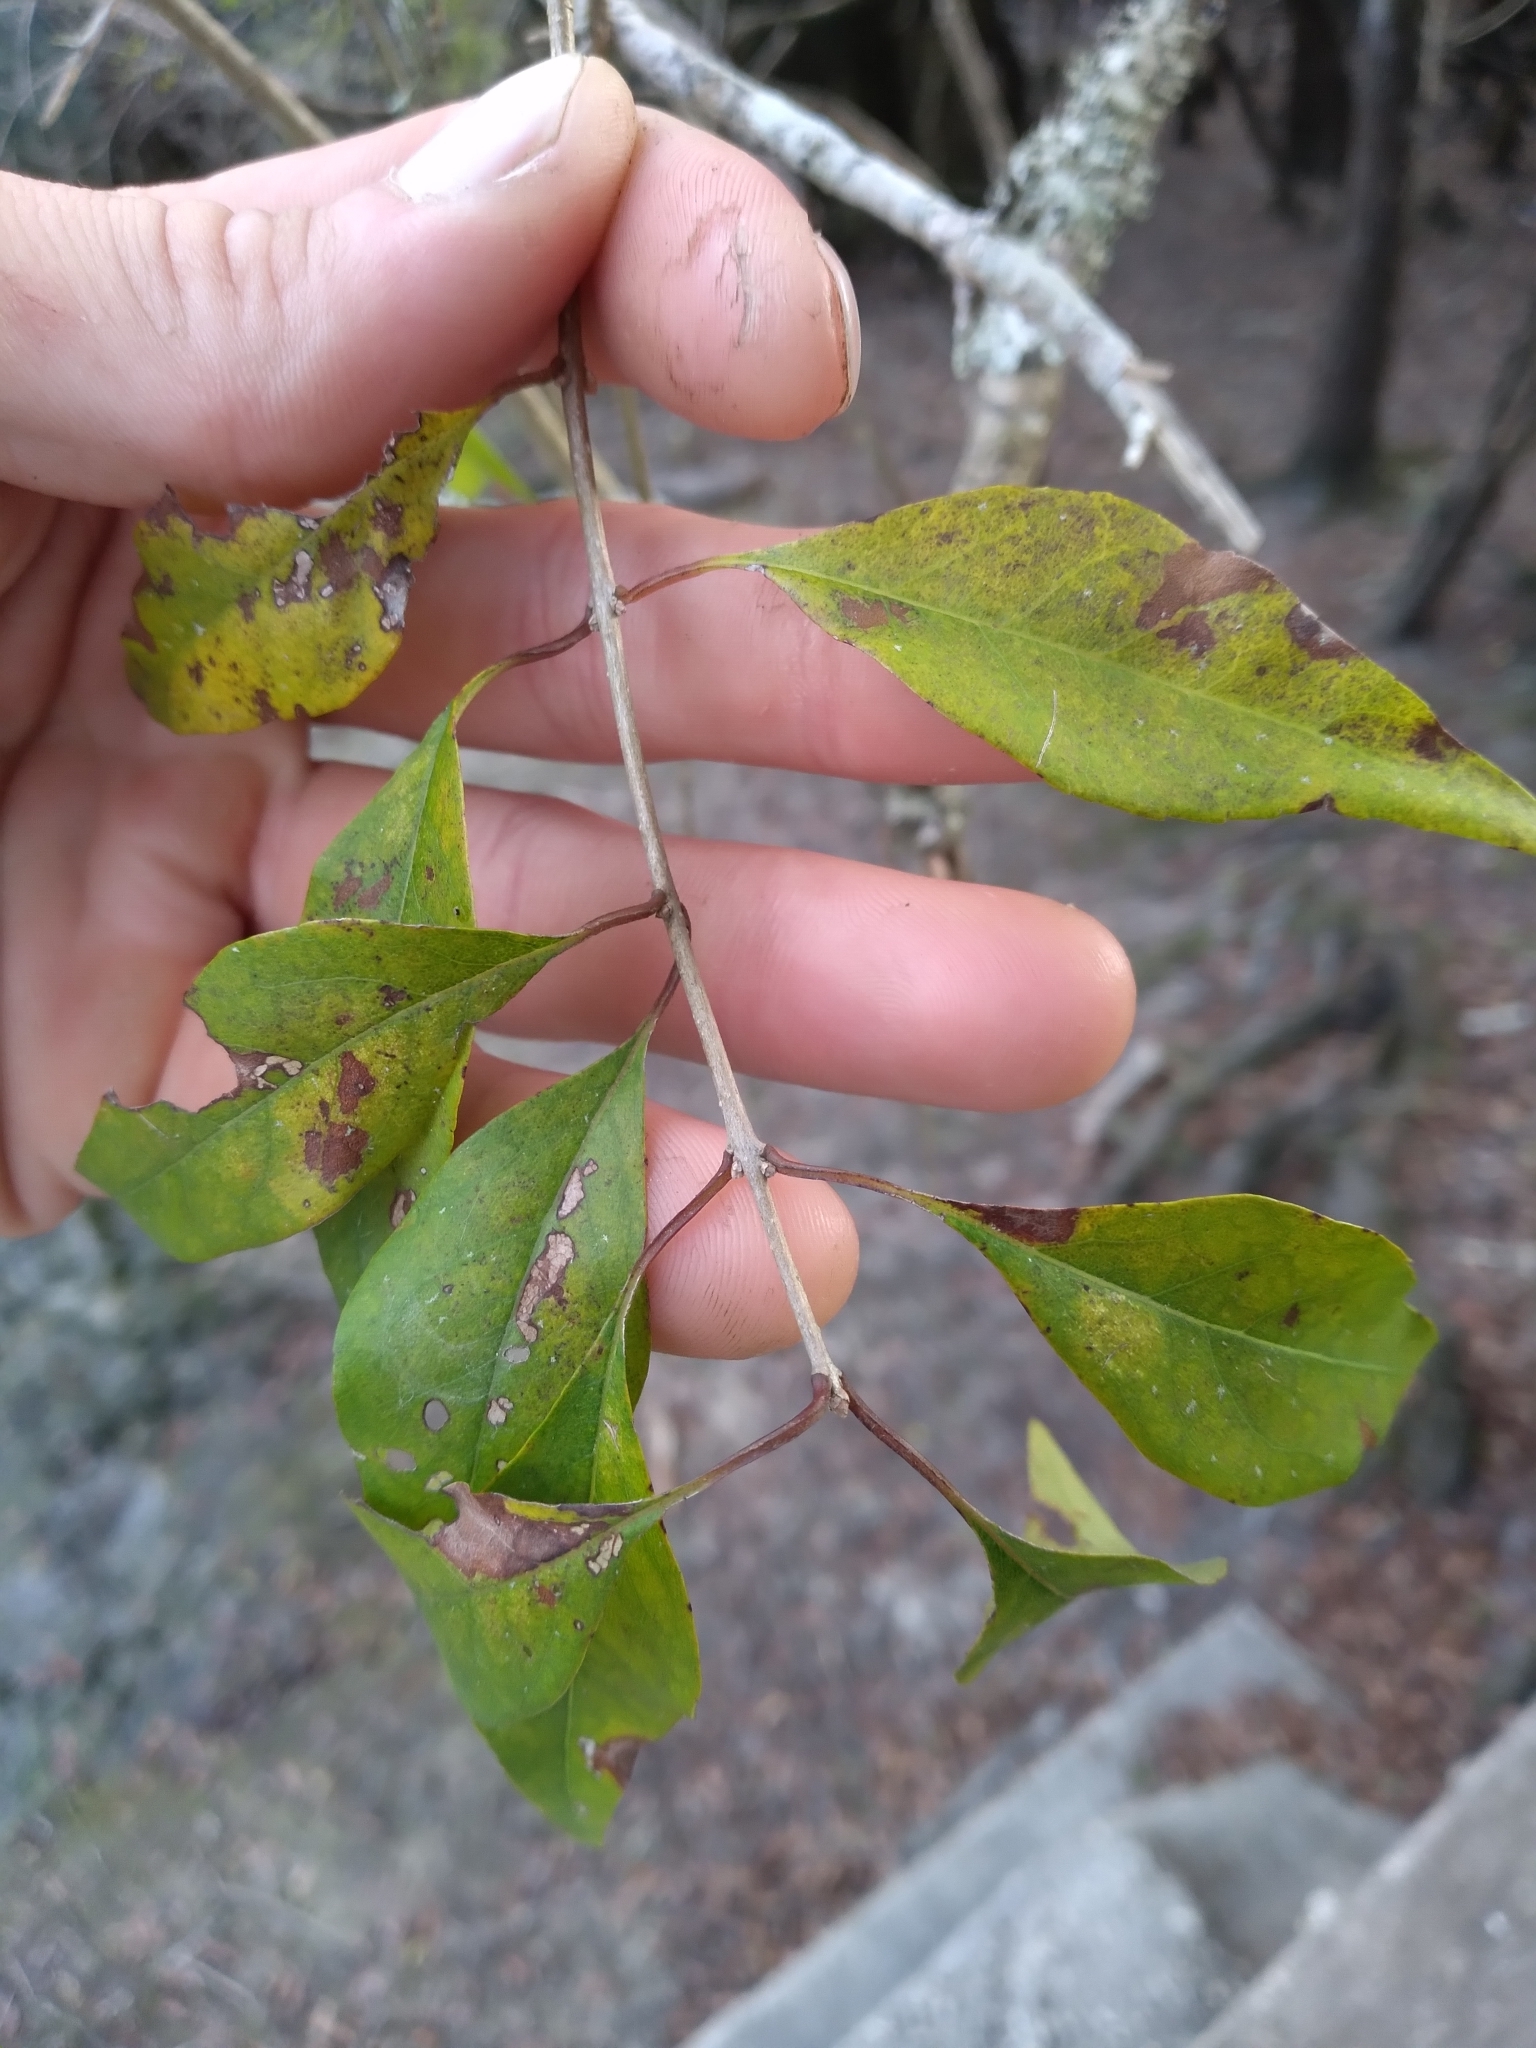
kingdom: Plantae
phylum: Tracheophyta
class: Magnoliopsida
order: Lamiales
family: Oleaceae
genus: Forestiera
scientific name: Forestiera acuminata
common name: Swamp-privet
